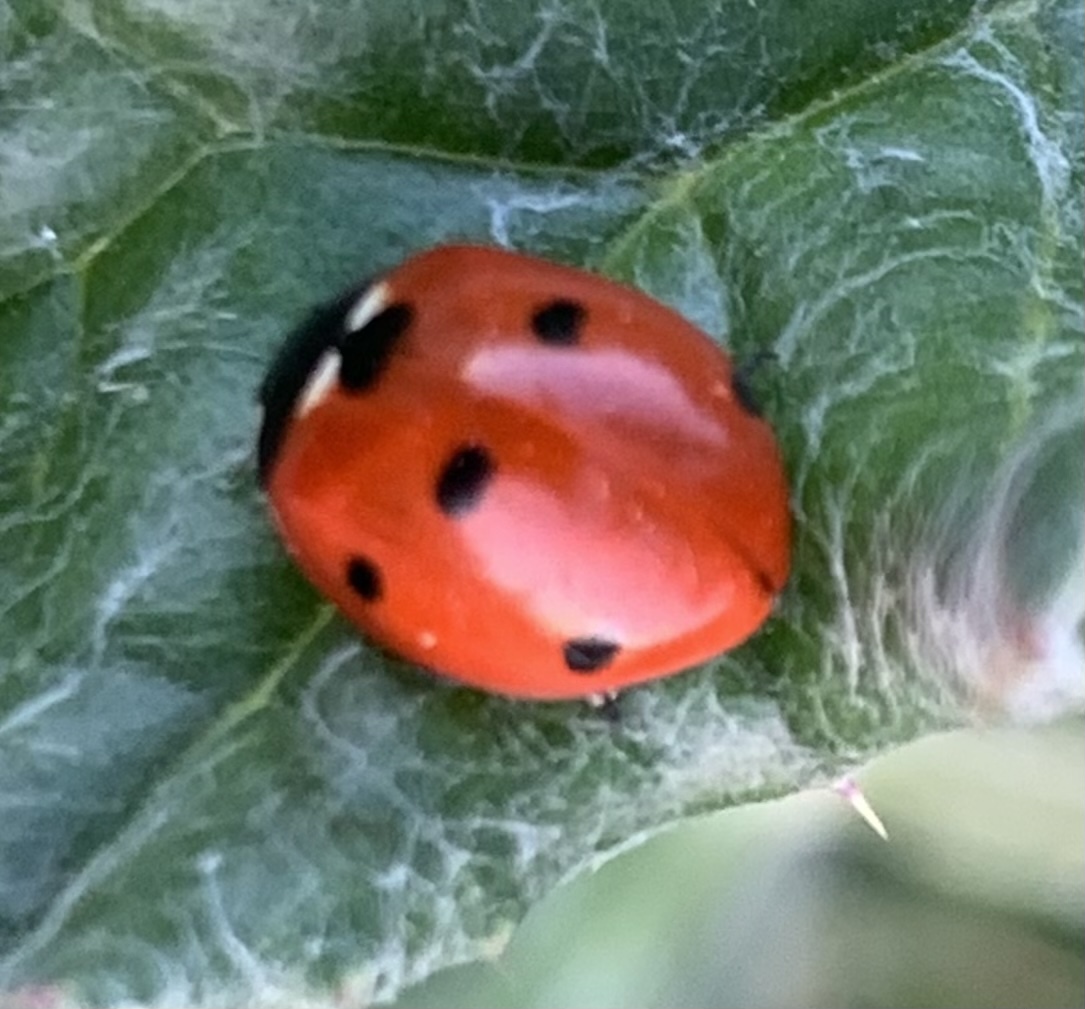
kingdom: Animalia
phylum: Arthropoda
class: Insecta
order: Coleoptera
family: Coccinellidae
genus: Coccinella
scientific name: Coccinella septempunctata
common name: Sevenspotted lady beetle
